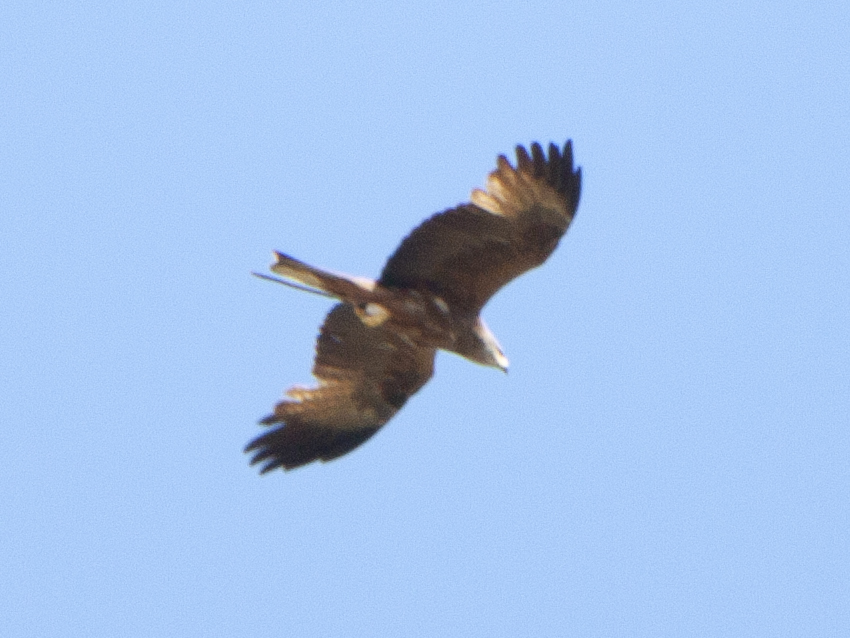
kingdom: Animalia
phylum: Chordata
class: Aves
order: Accipitriformes
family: Accipitridae
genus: Milvus
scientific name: Milvus milvus
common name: Red kite
